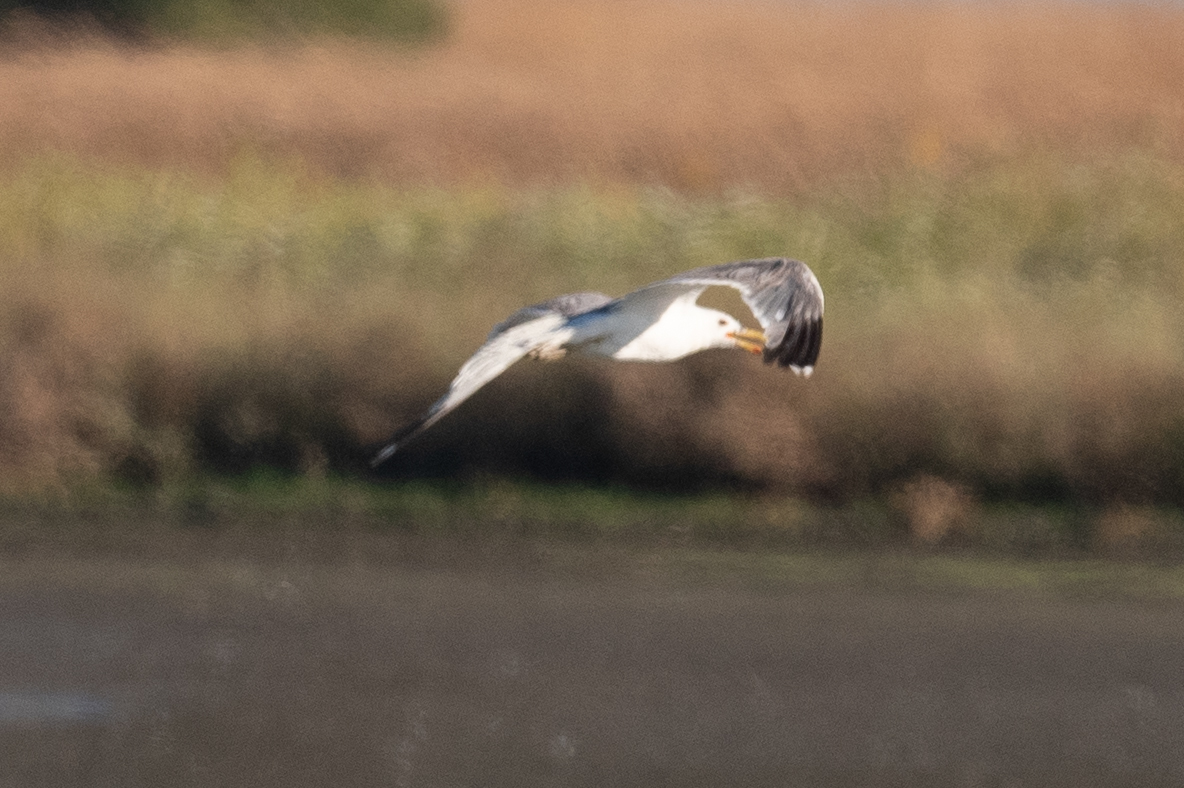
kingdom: Animalia
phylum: Chordata
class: Aves
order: Charadriiformes
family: Laridae
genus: Larus
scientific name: Larus californicus
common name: California gull
